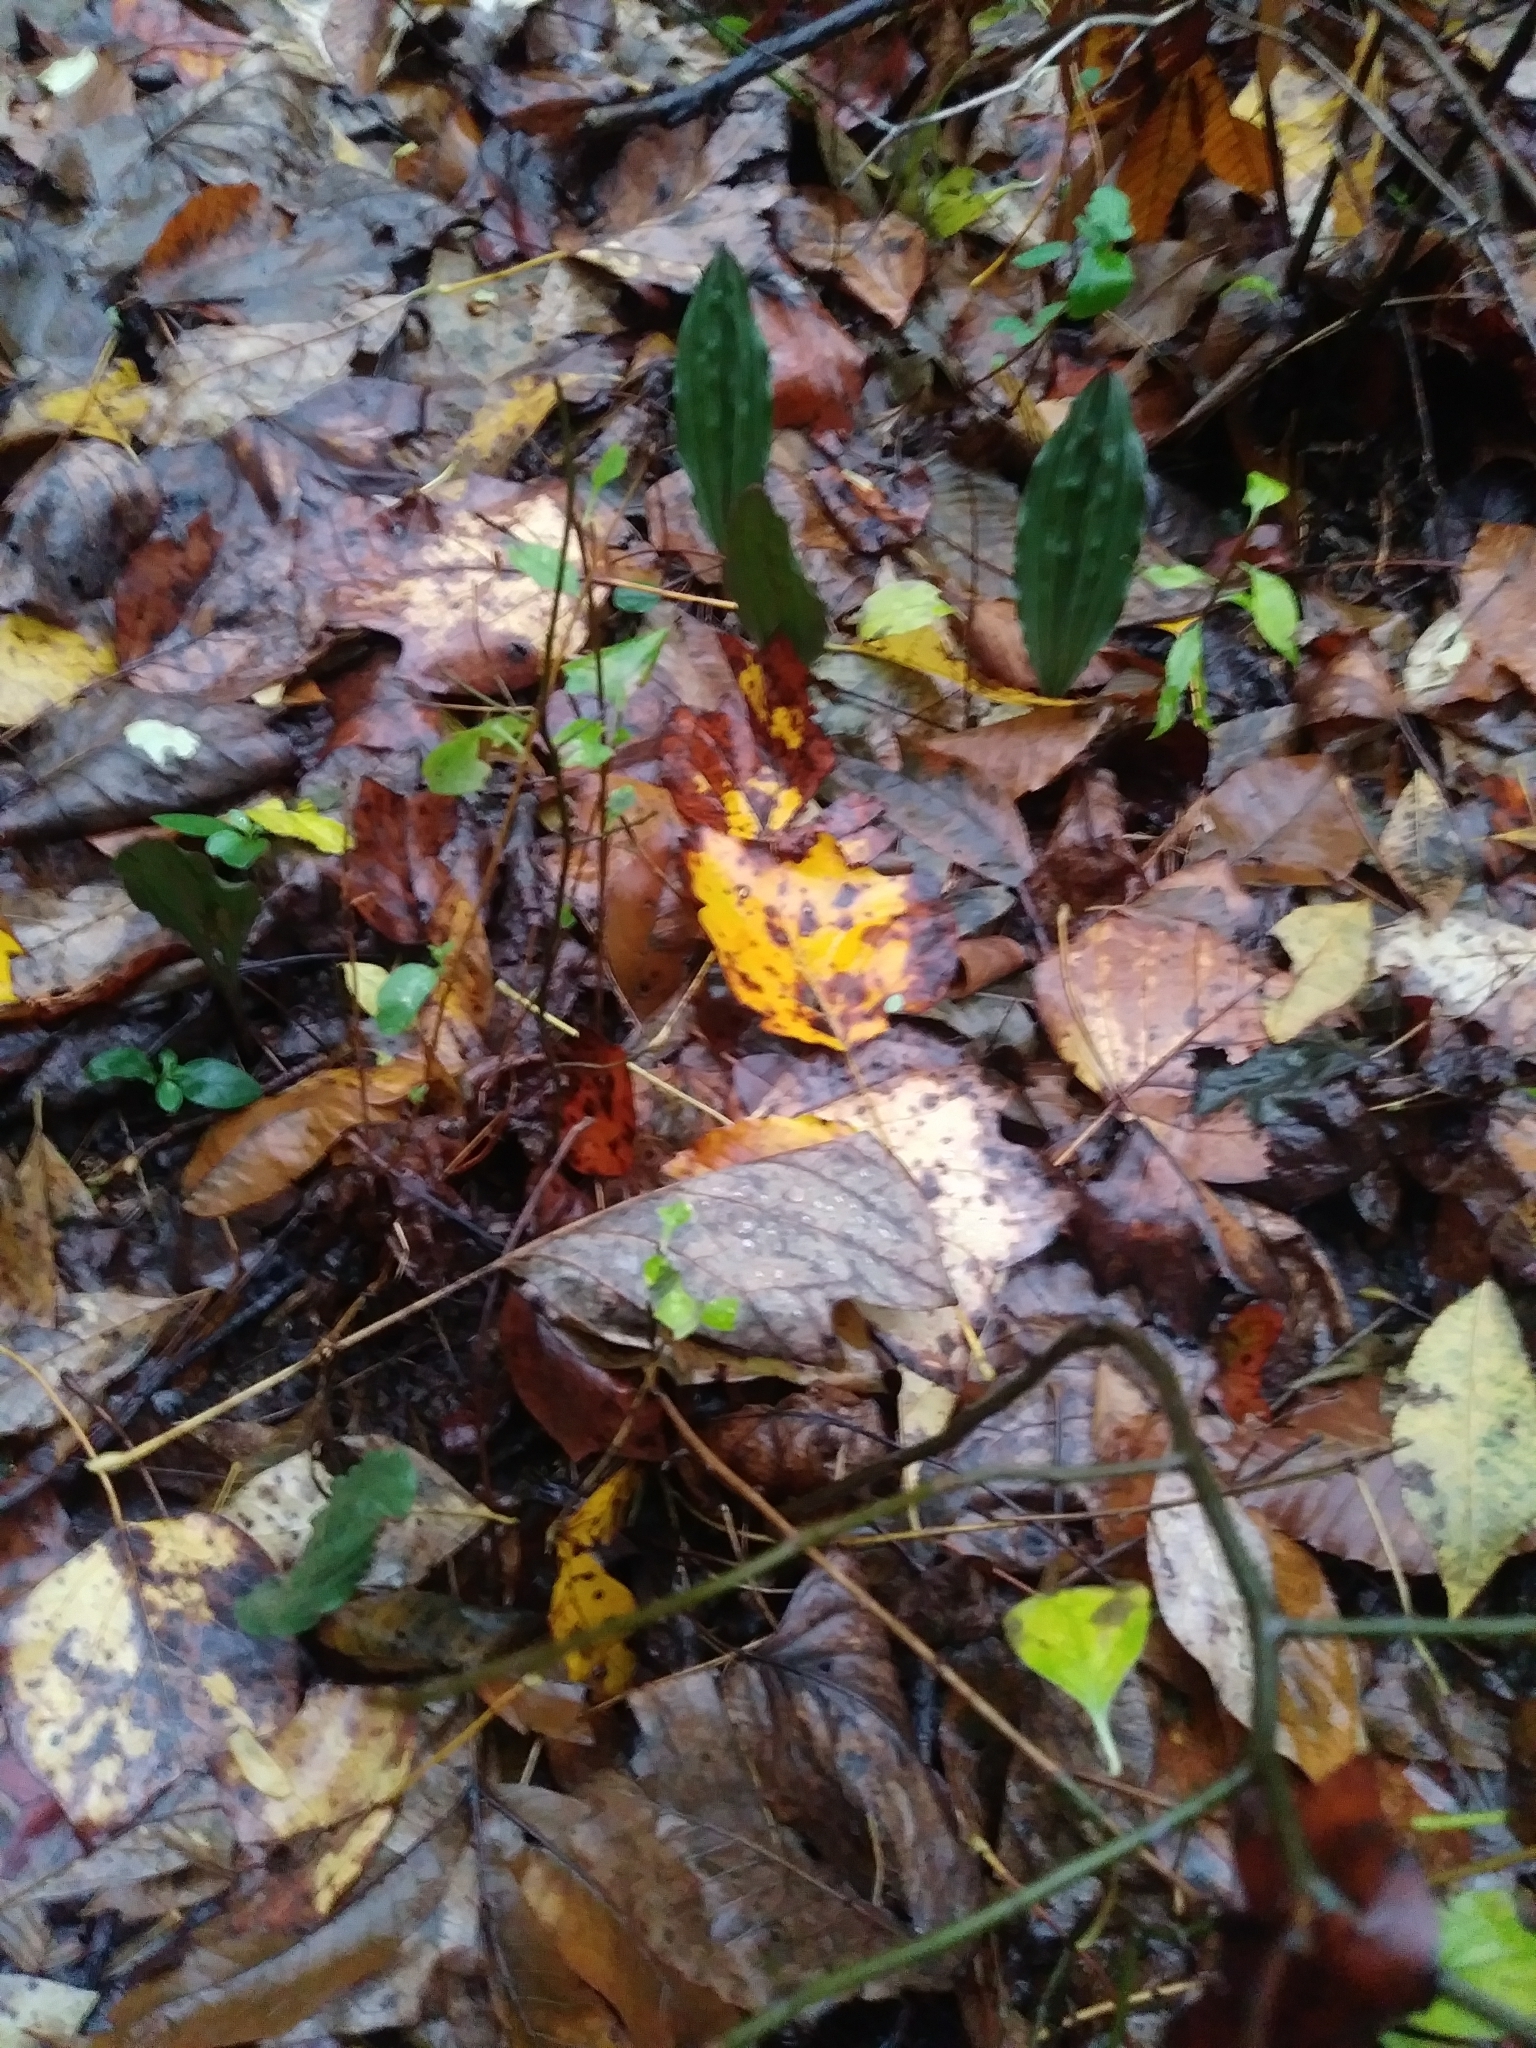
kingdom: Plantae
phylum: Tracheophyta
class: Liliopsida
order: Asparagales
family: Orchidaceae
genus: Aplectrum
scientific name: Aplectrum hyemale
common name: Adam-and-eve
